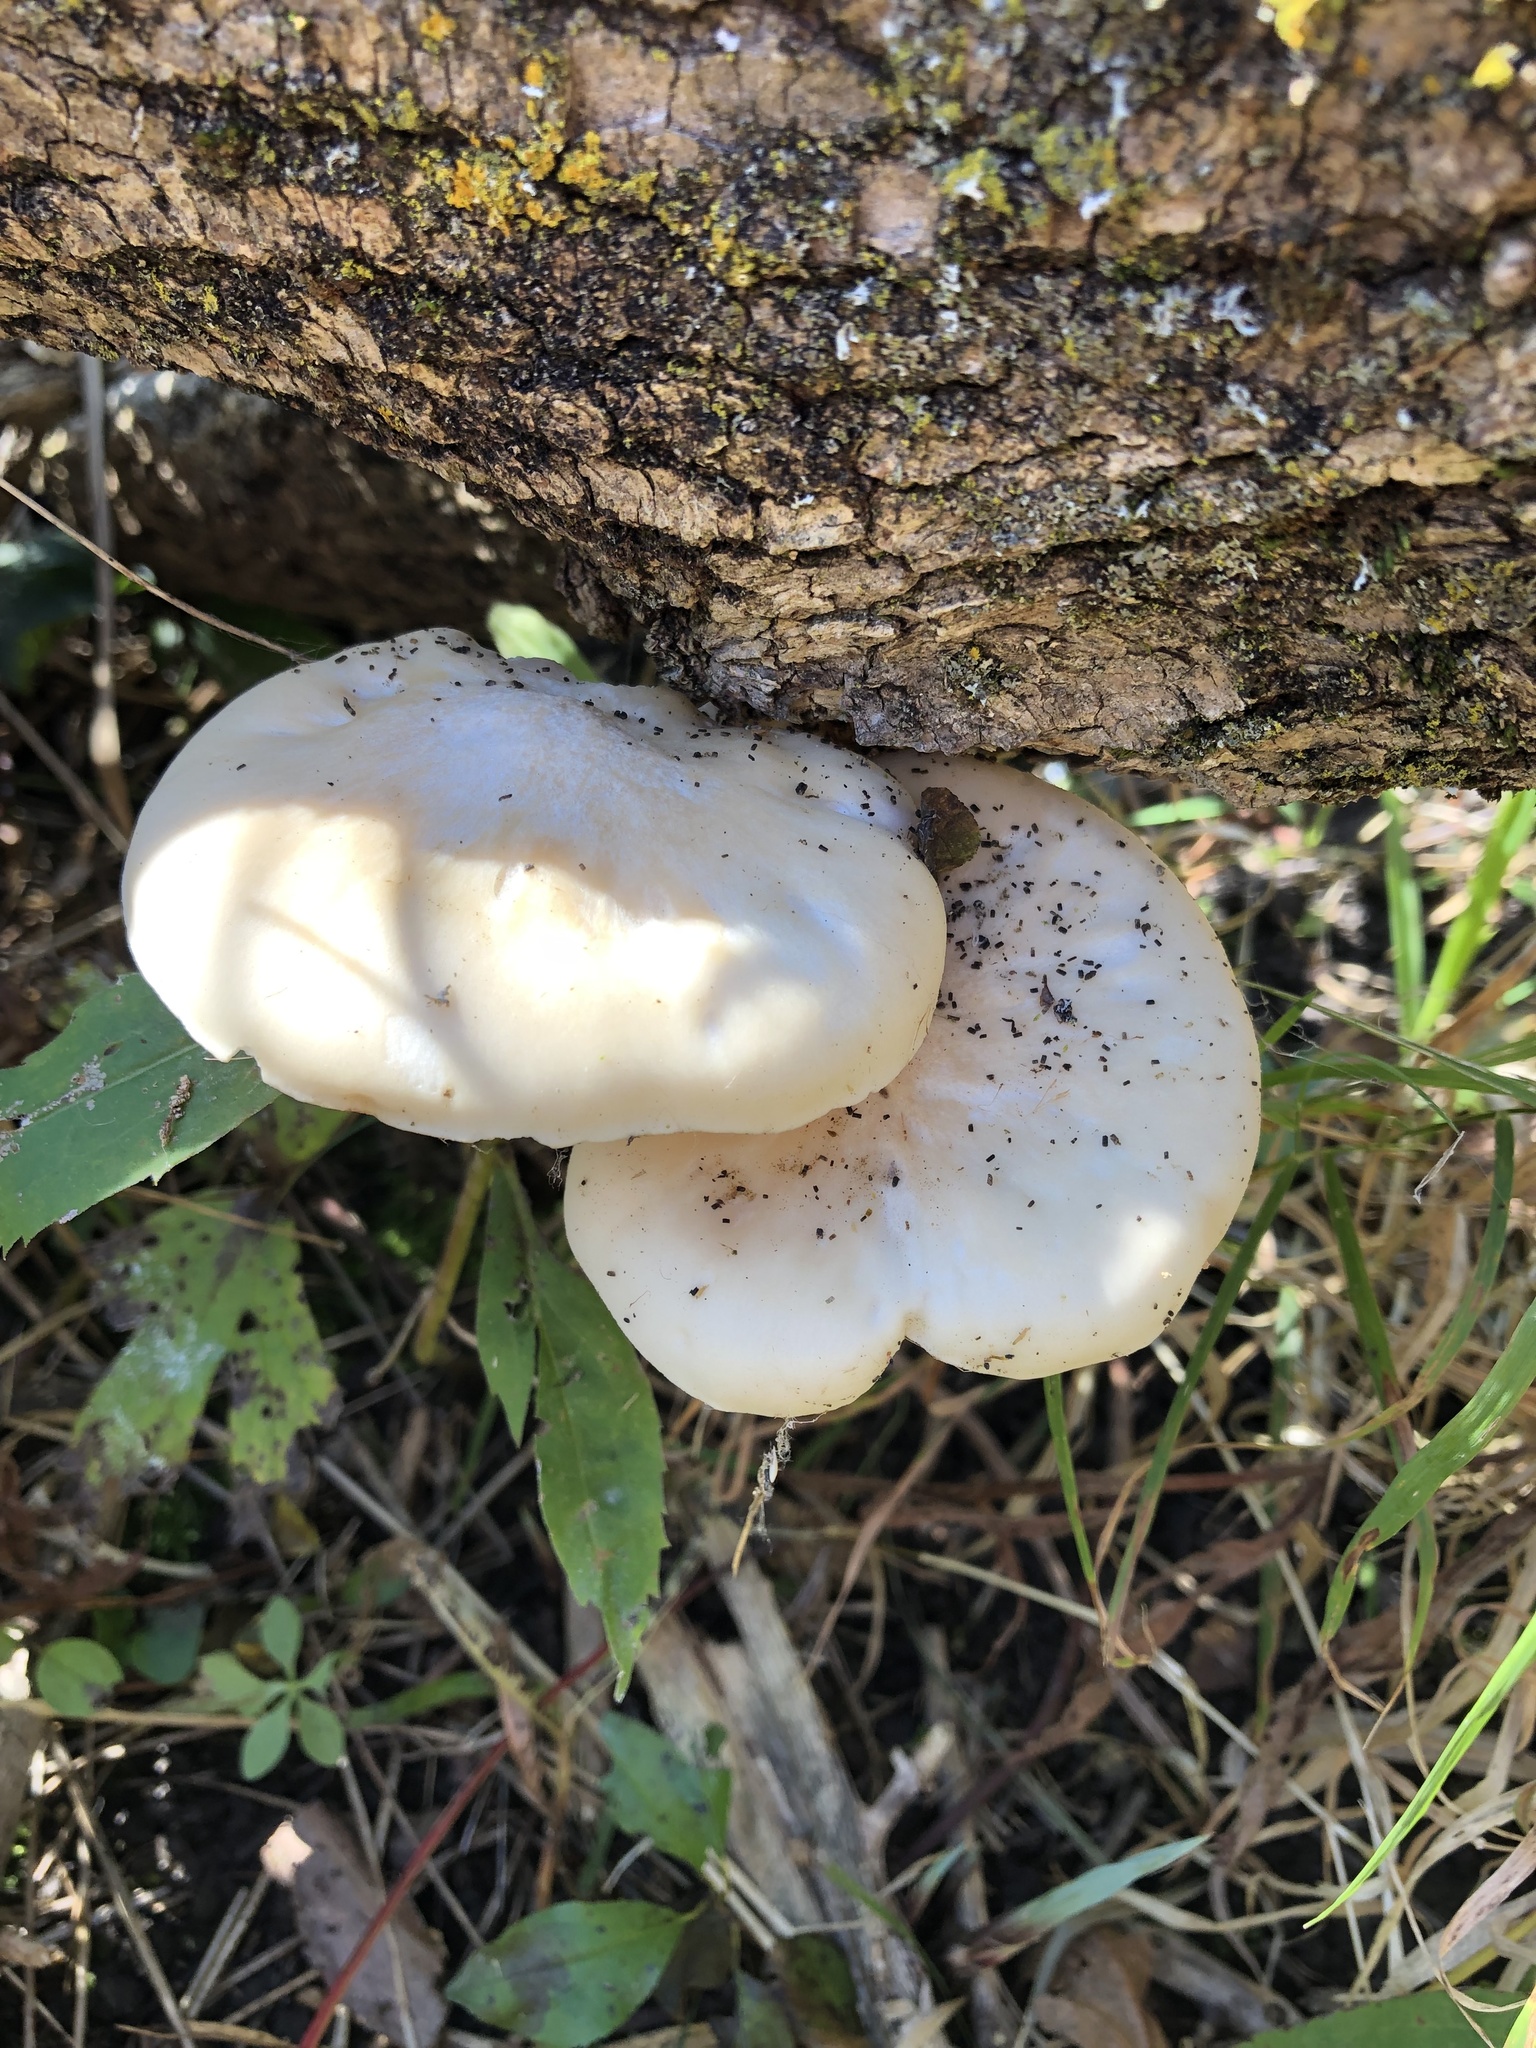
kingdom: Fungi
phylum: Basidiomycota
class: Agaricomycetes
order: Polyporales
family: Incrustoporiaceae
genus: Tyromyces
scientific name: Tyromyces chioneus
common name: White cheese polypore
